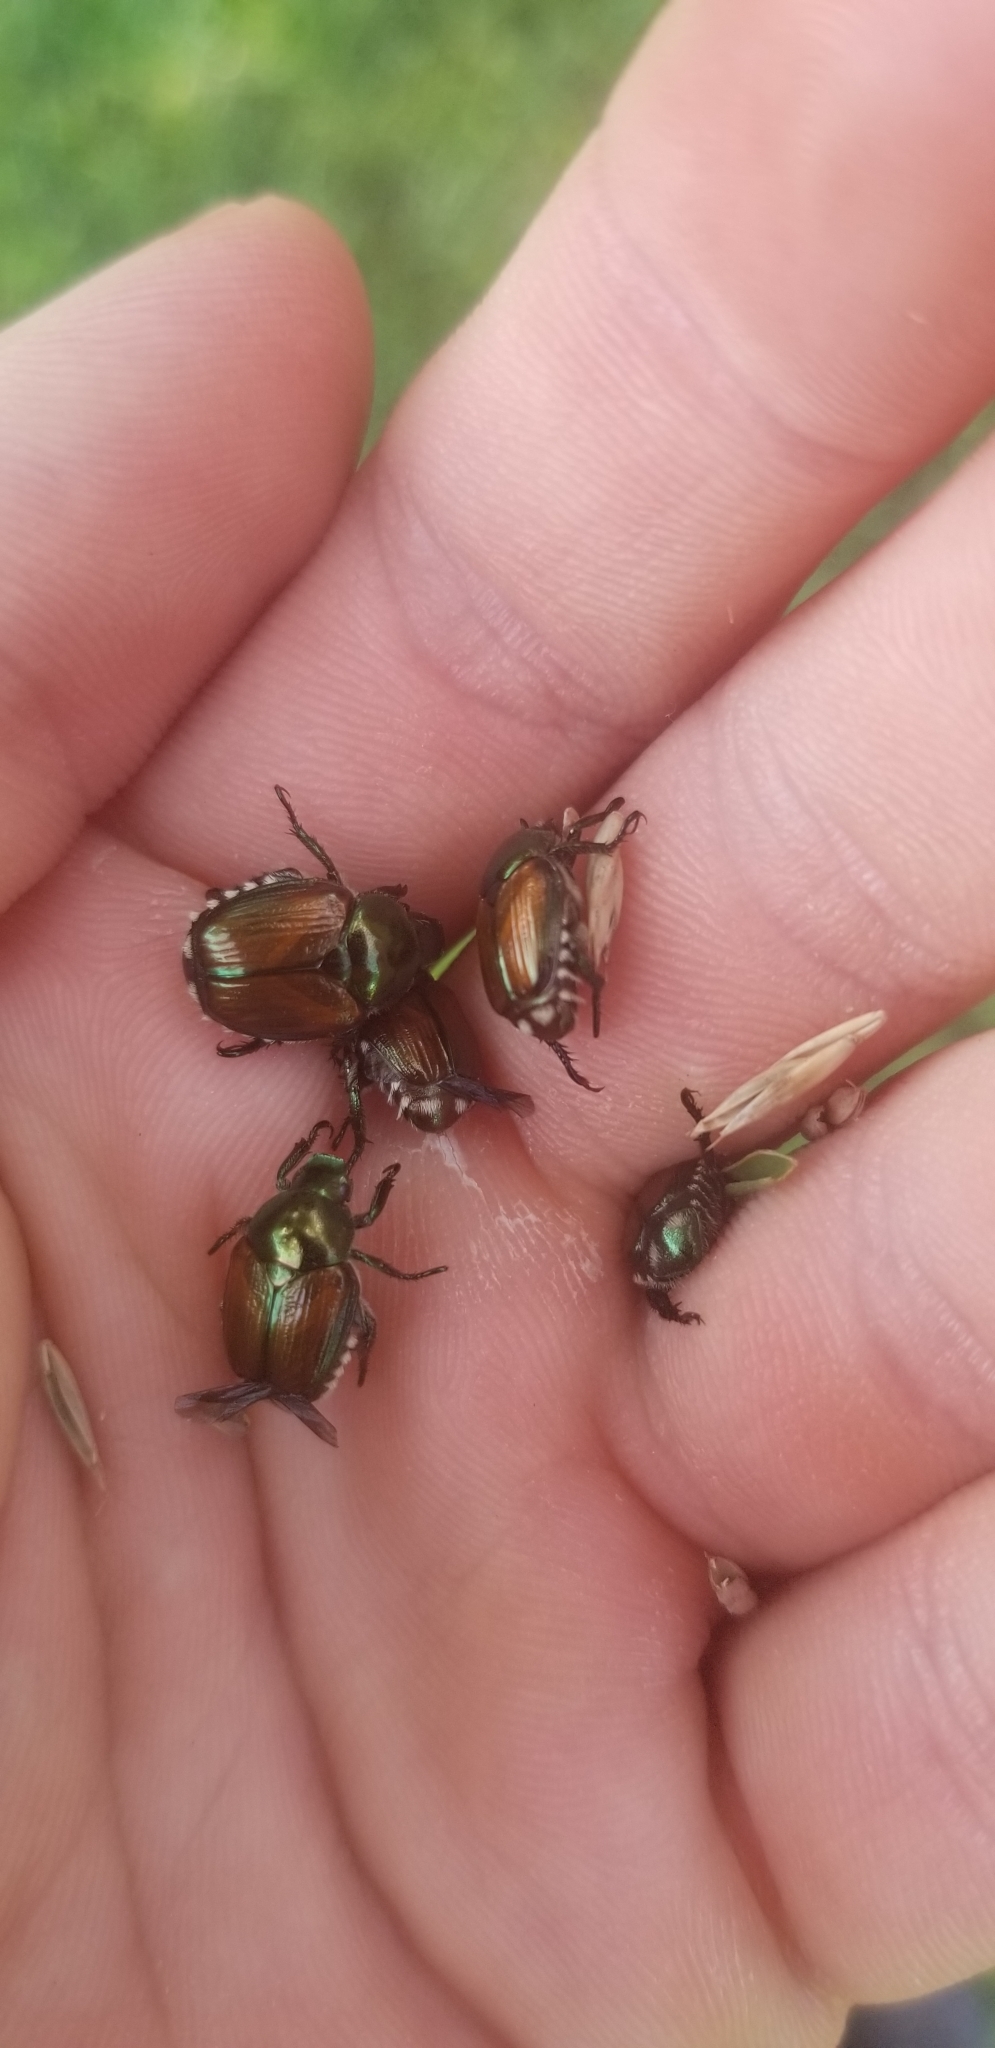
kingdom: Animalia
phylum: Arthropoda
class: Insecta
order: Coleoptera
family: Scarabaeidae
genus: Popillia
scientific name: Popillia japonica
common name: Japanese beetle
